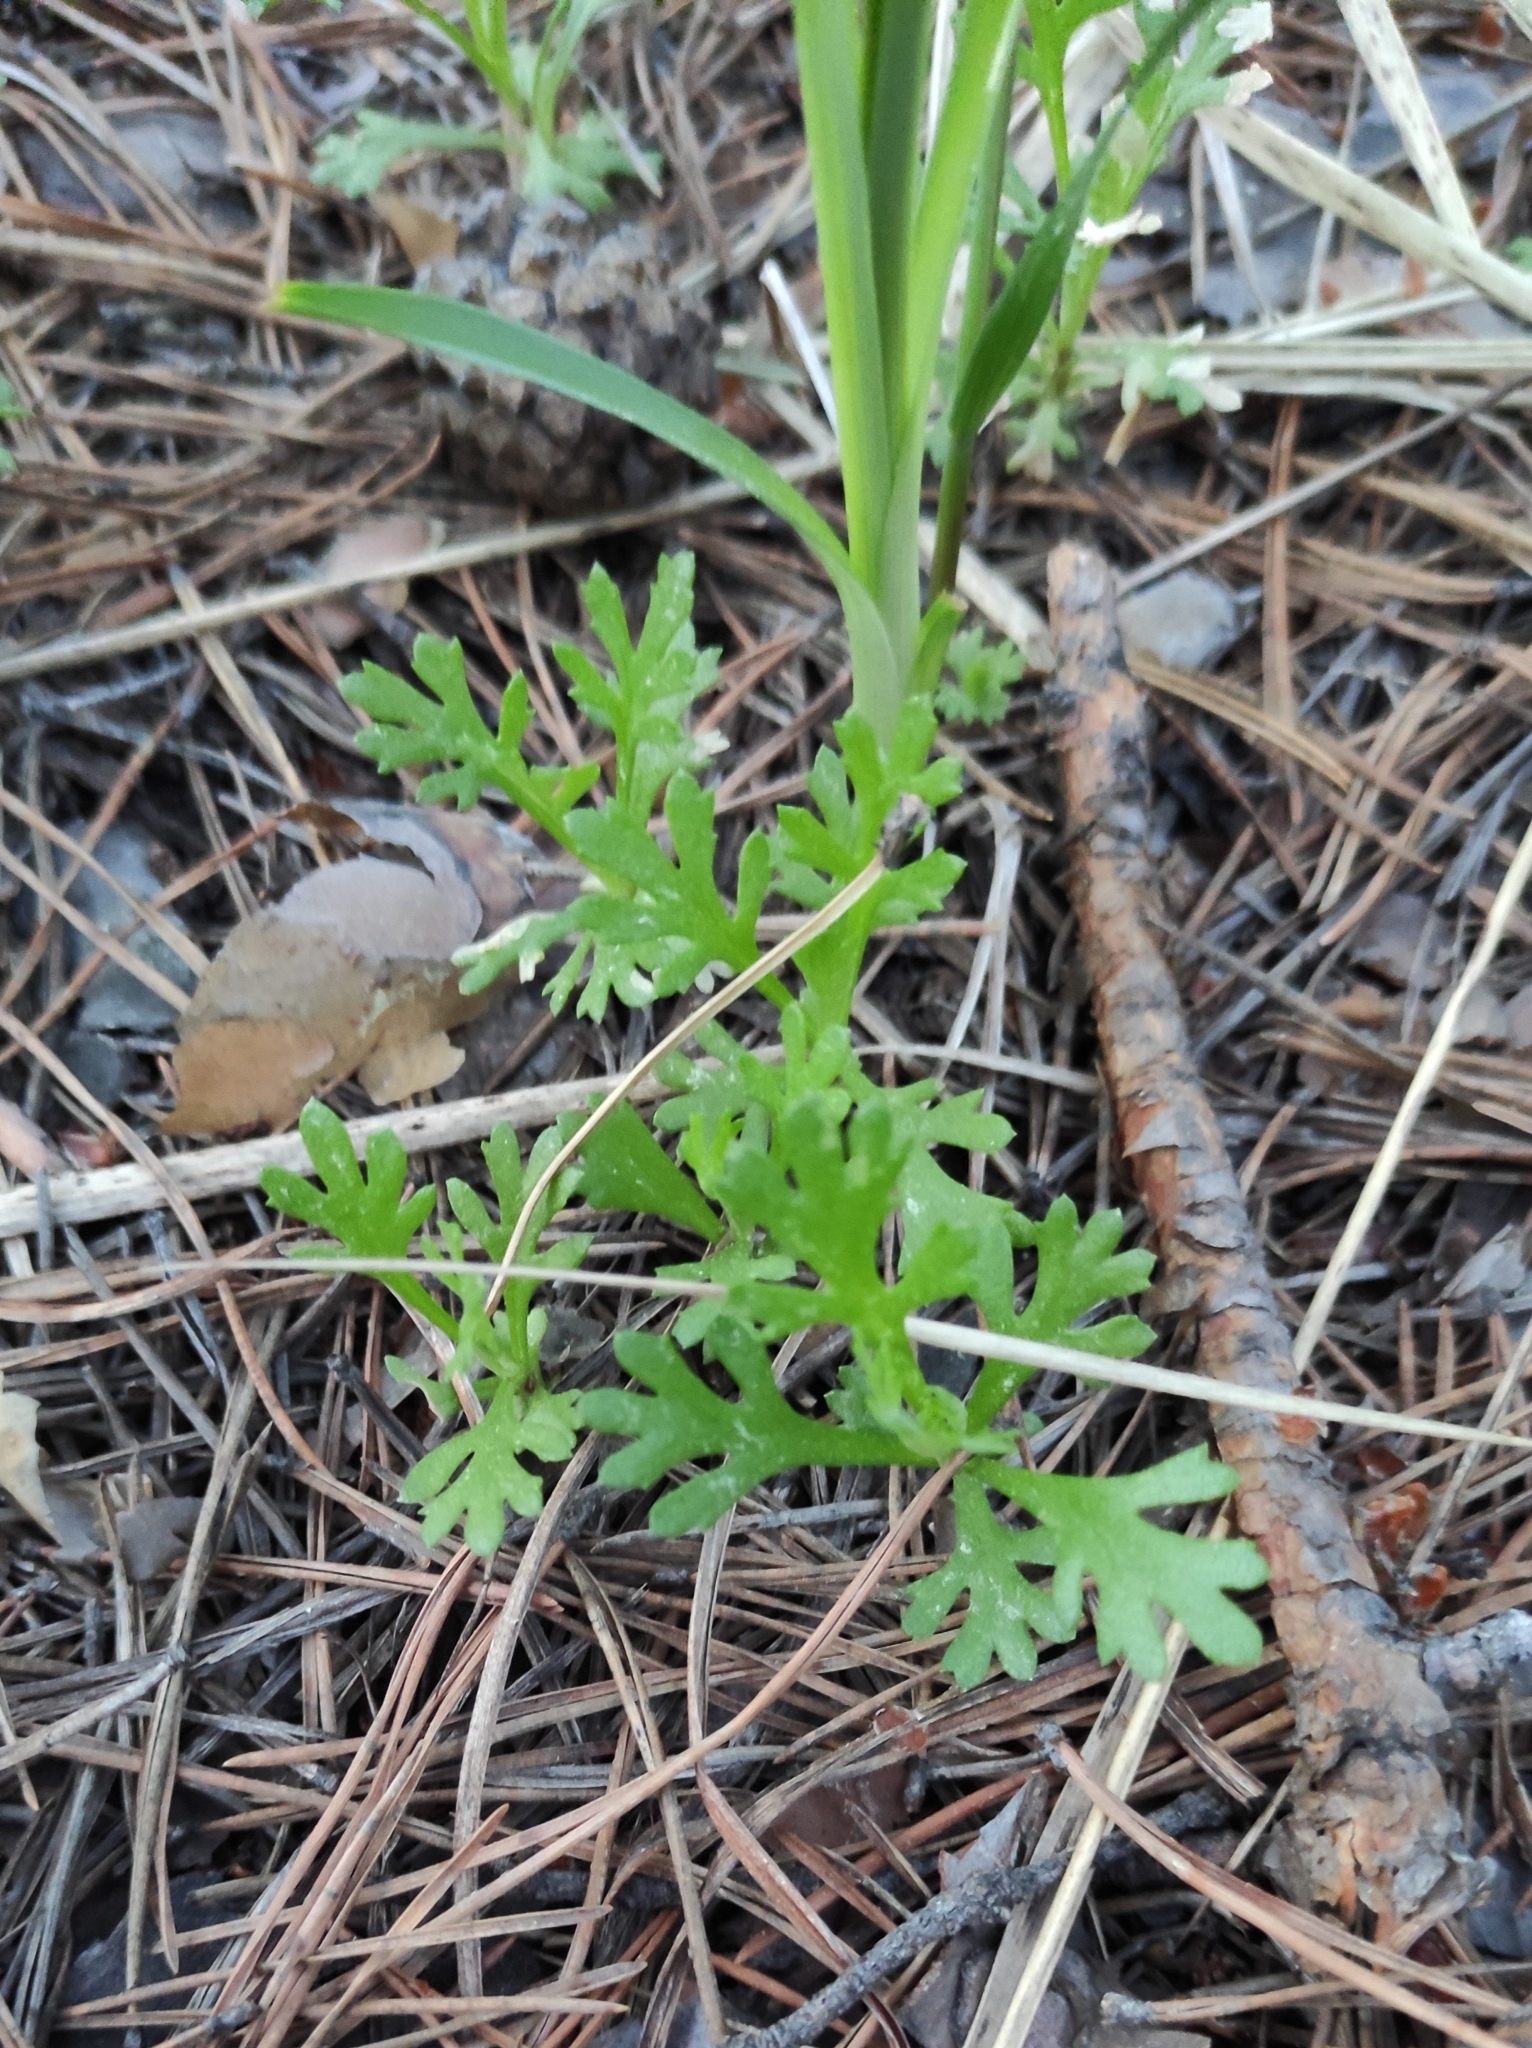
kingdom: Plantae
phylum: Tracheophyta
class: Magnoliopsida
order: Asterales
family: Asteraceae
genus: Chrysanthemum
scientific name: Chrysanthemum zawadzkii
